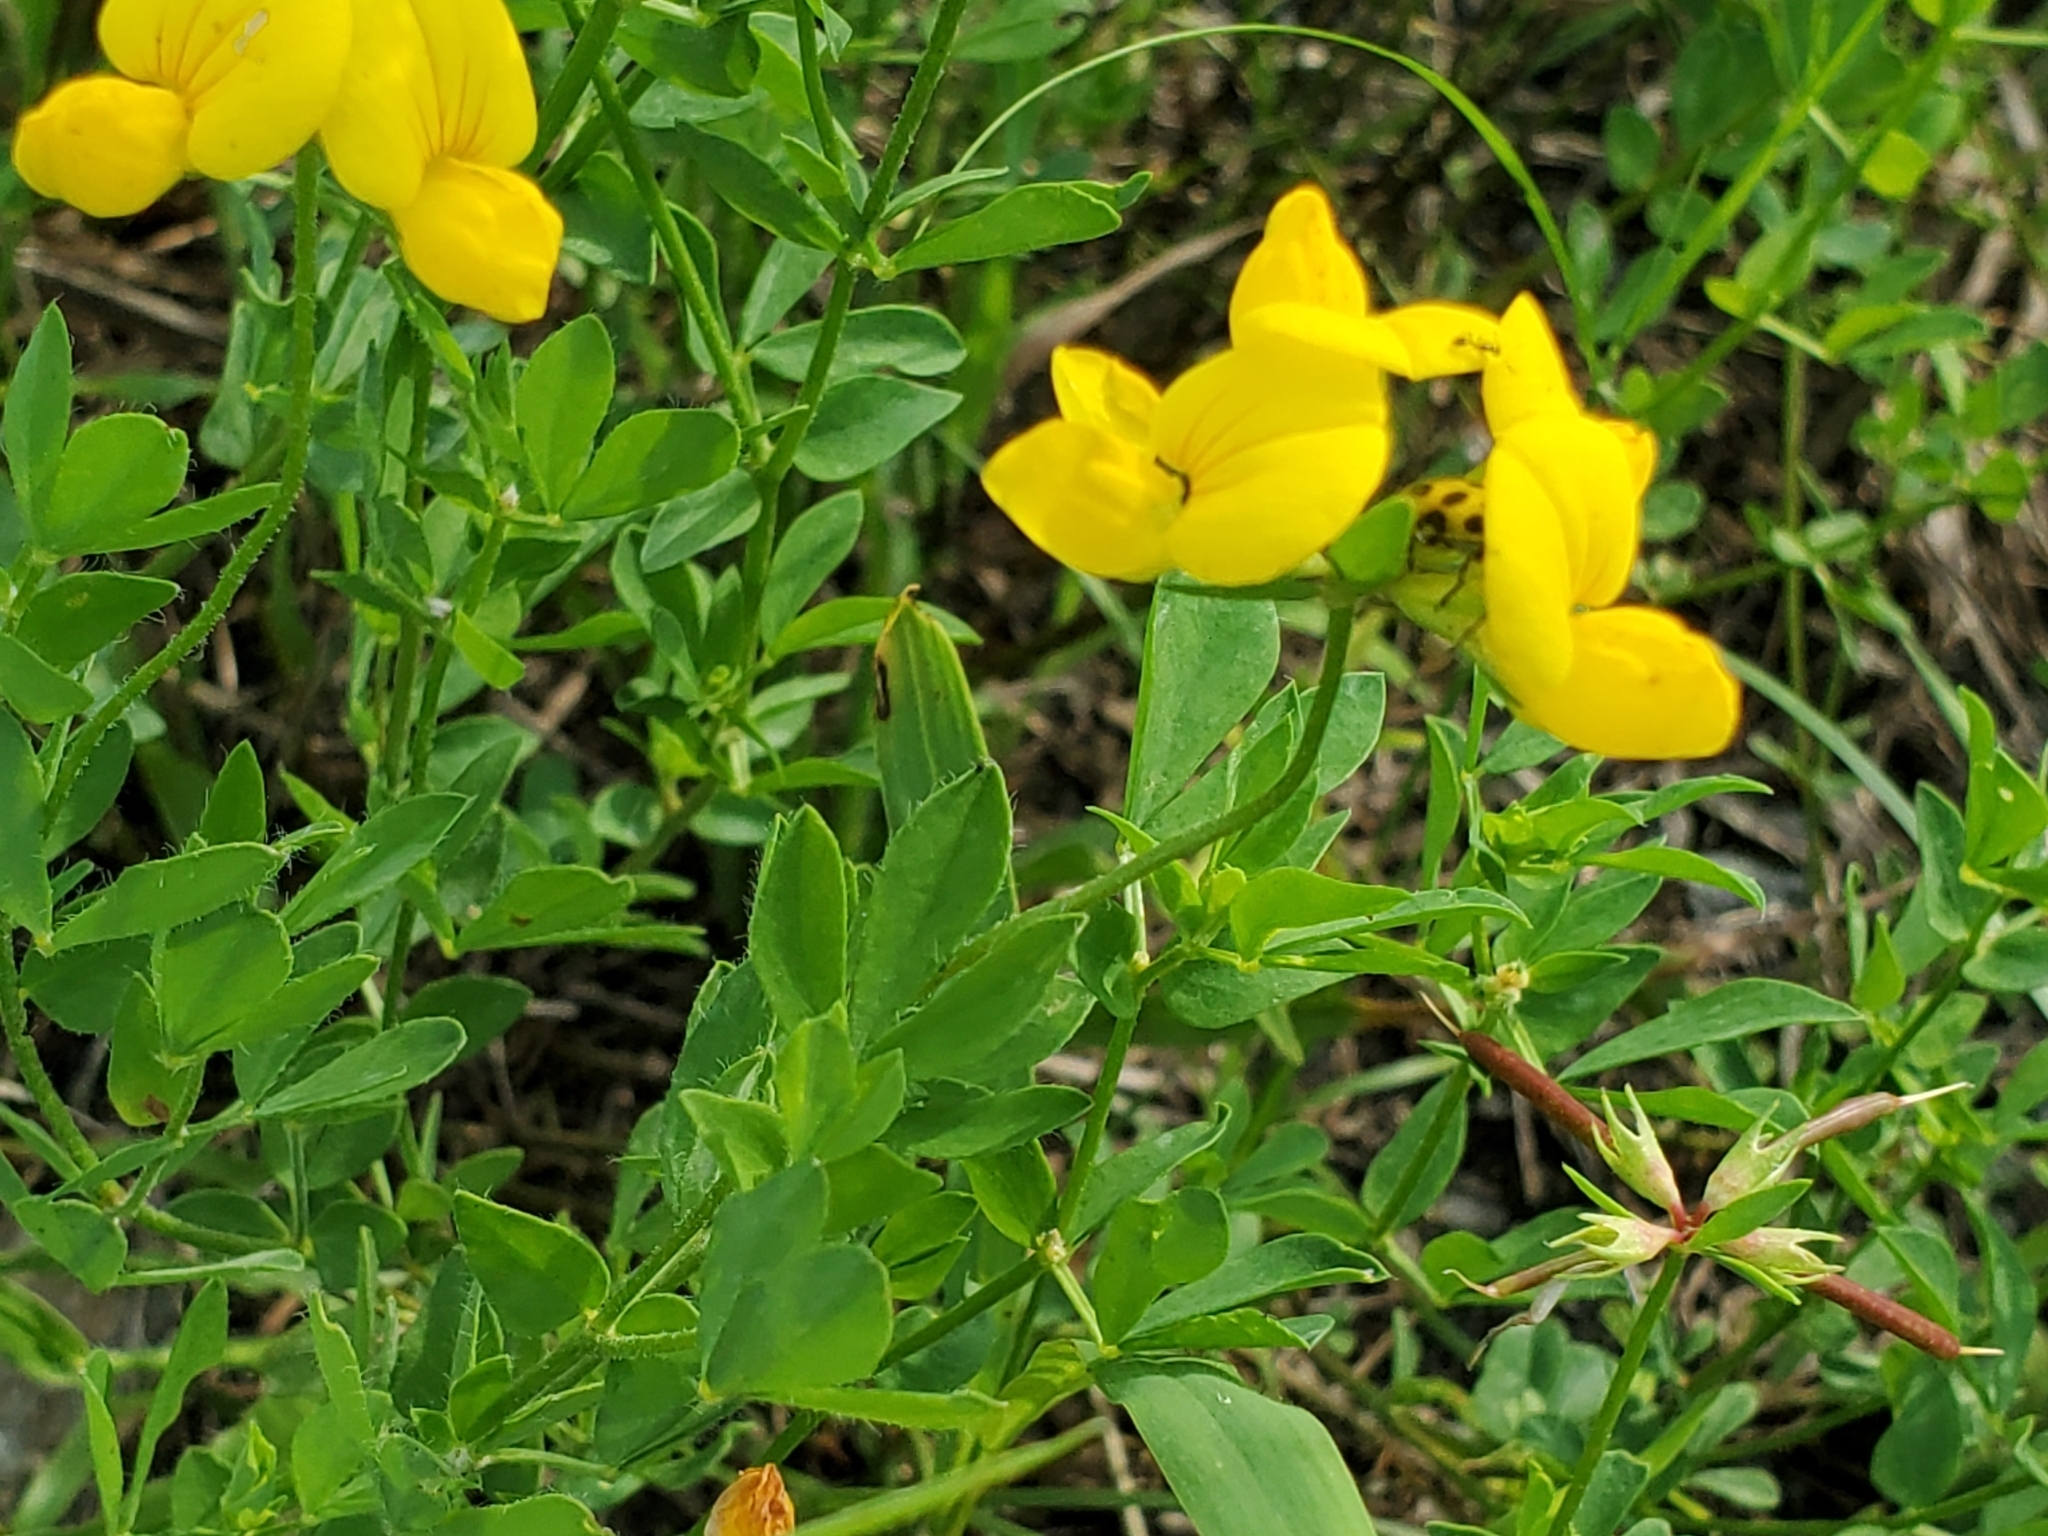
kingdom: Plantae
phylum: Tracheophyta
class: Magnoliopsida
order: Fabales
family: Fabaceae
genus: Lotus
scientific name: Lotus corniculatus
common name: Common bird's-foot-trefoil
